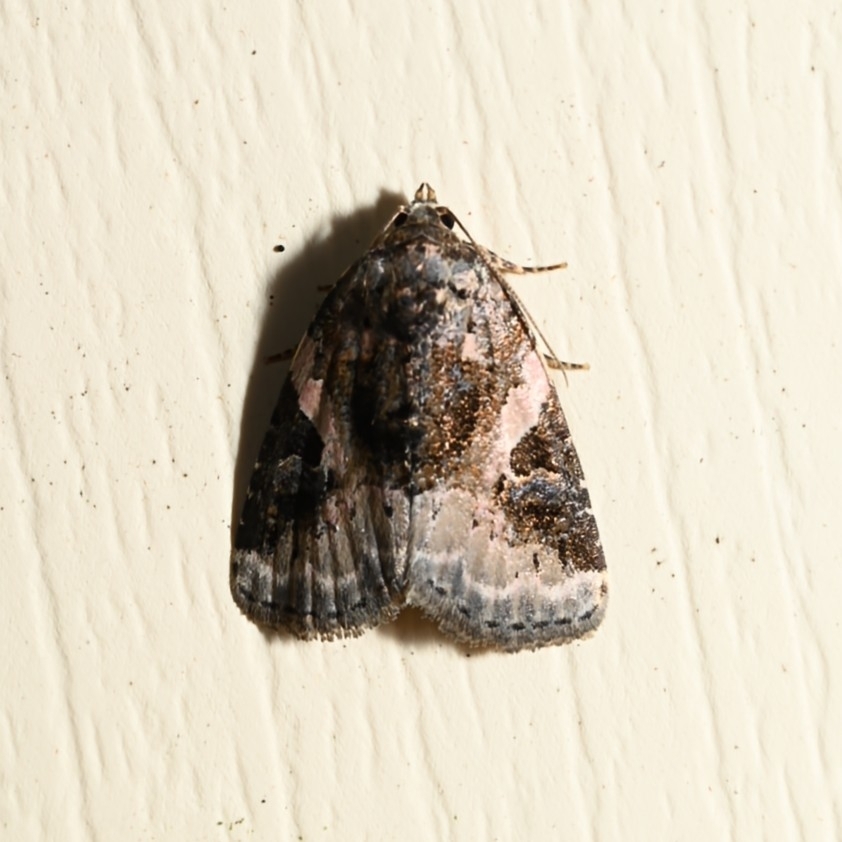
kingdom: Animalia
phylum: Arthropoda
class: Insecta
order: Lepidoptera
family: Noctuidae
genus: Pseudeustrotia
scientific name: Pseudeustrotia carneola
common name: Pink-barred lithacodia moth
